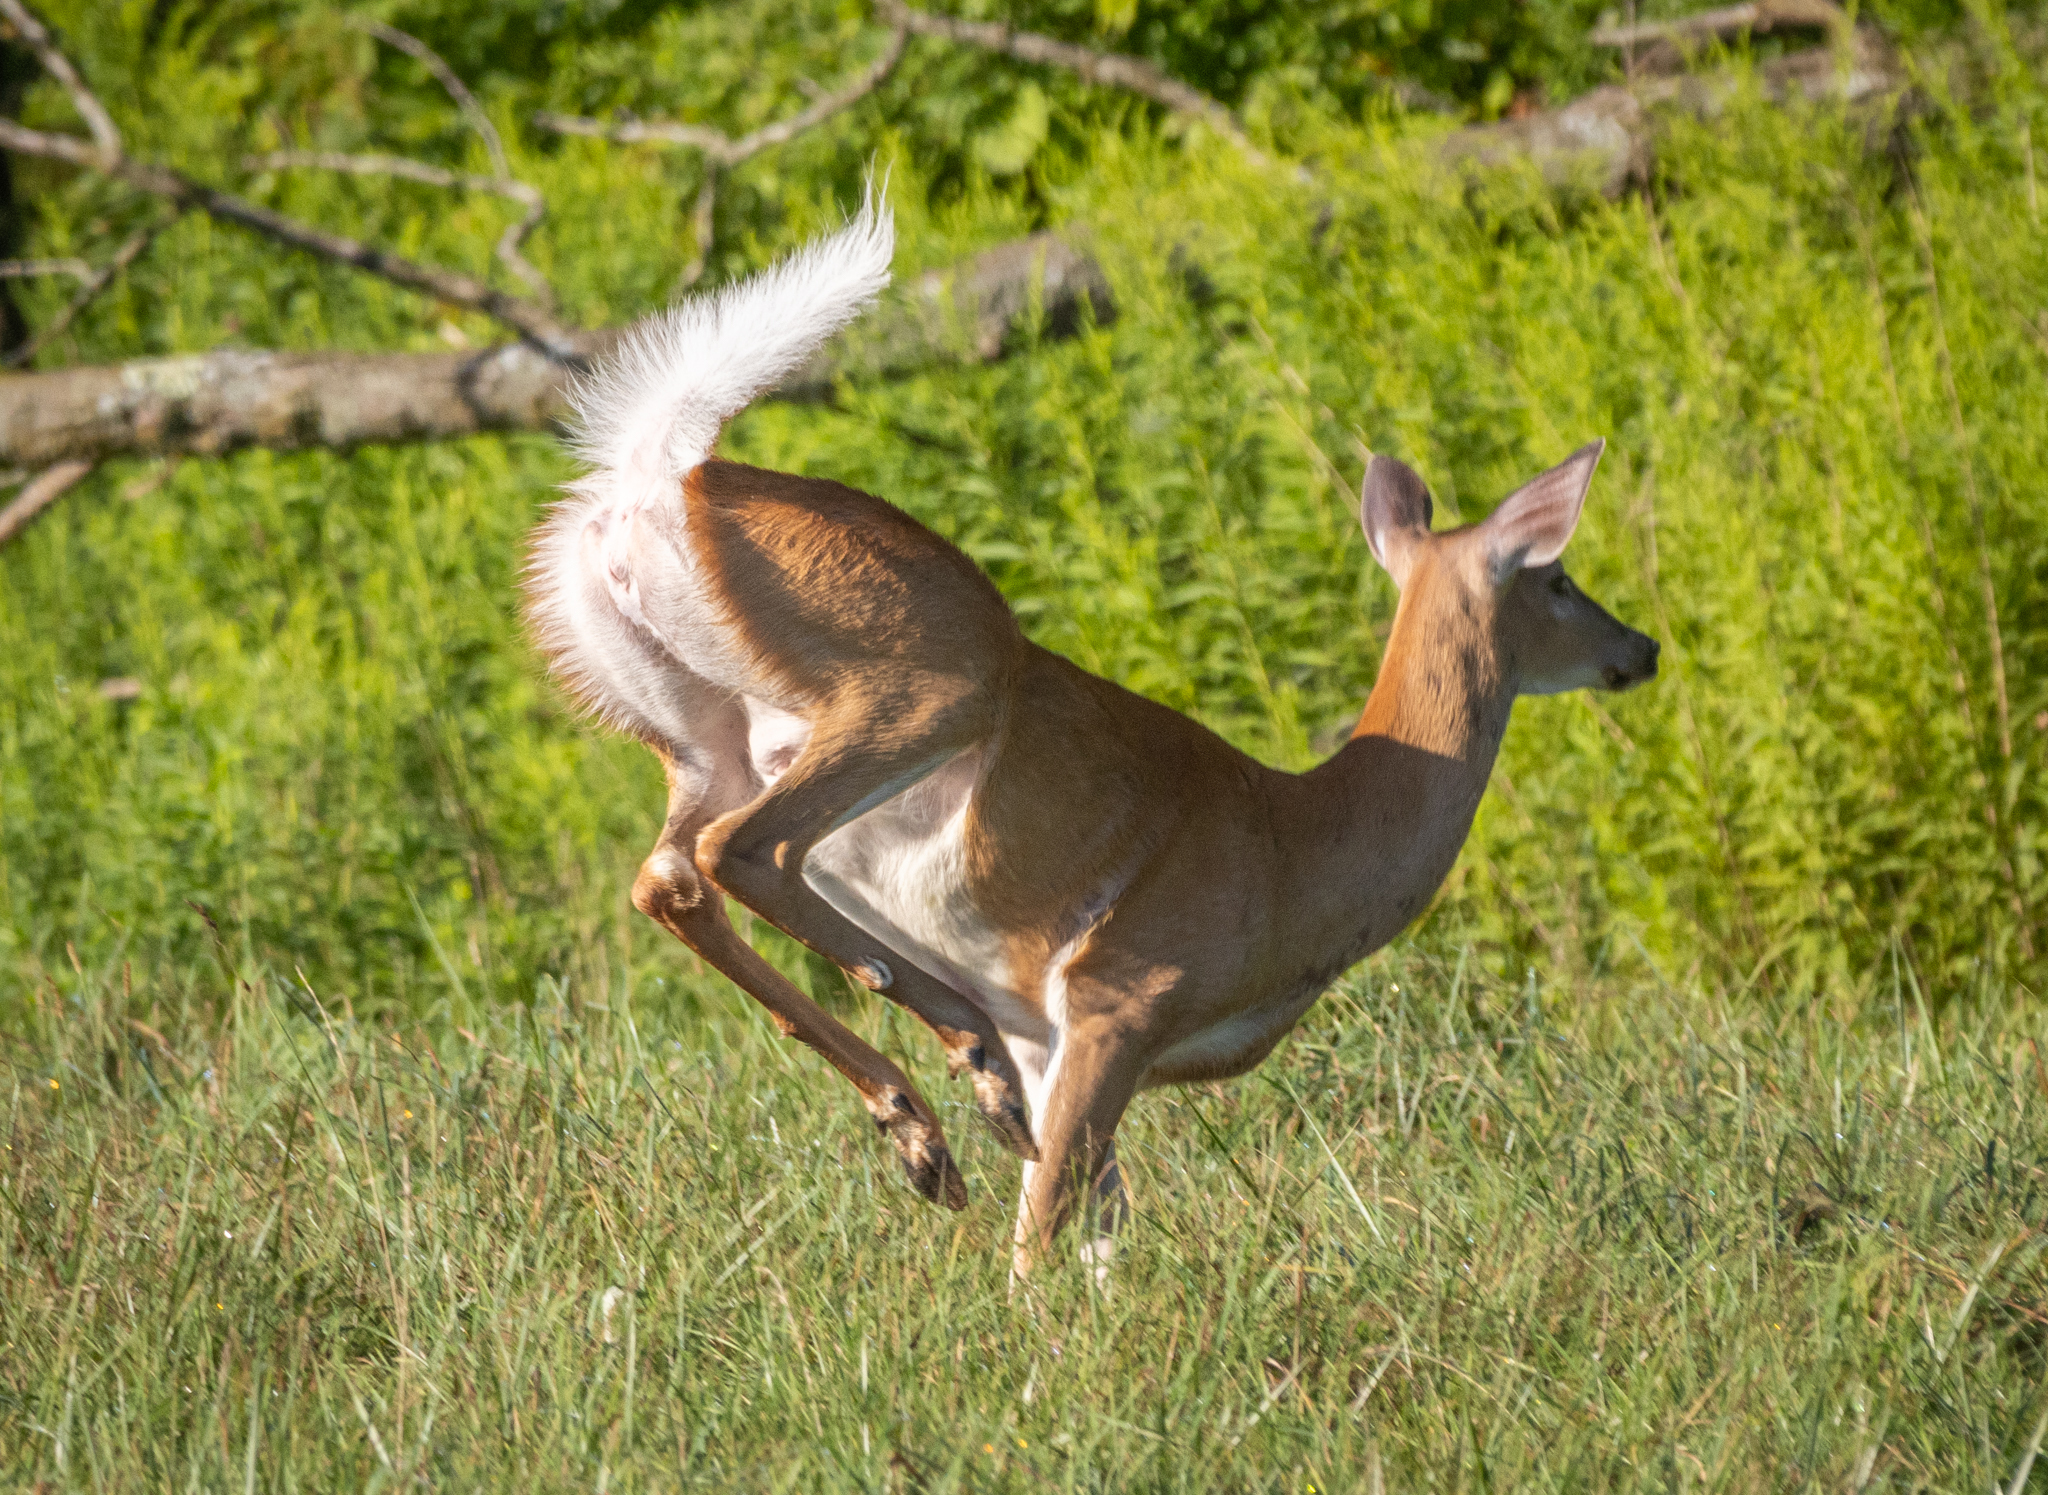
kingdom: Animalia
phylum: Chordata
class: Mammalia
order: Artiodactyla
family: Cervidae
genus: Odocoileus
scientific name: Odocoileus virginianus
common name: White-tailed deer
